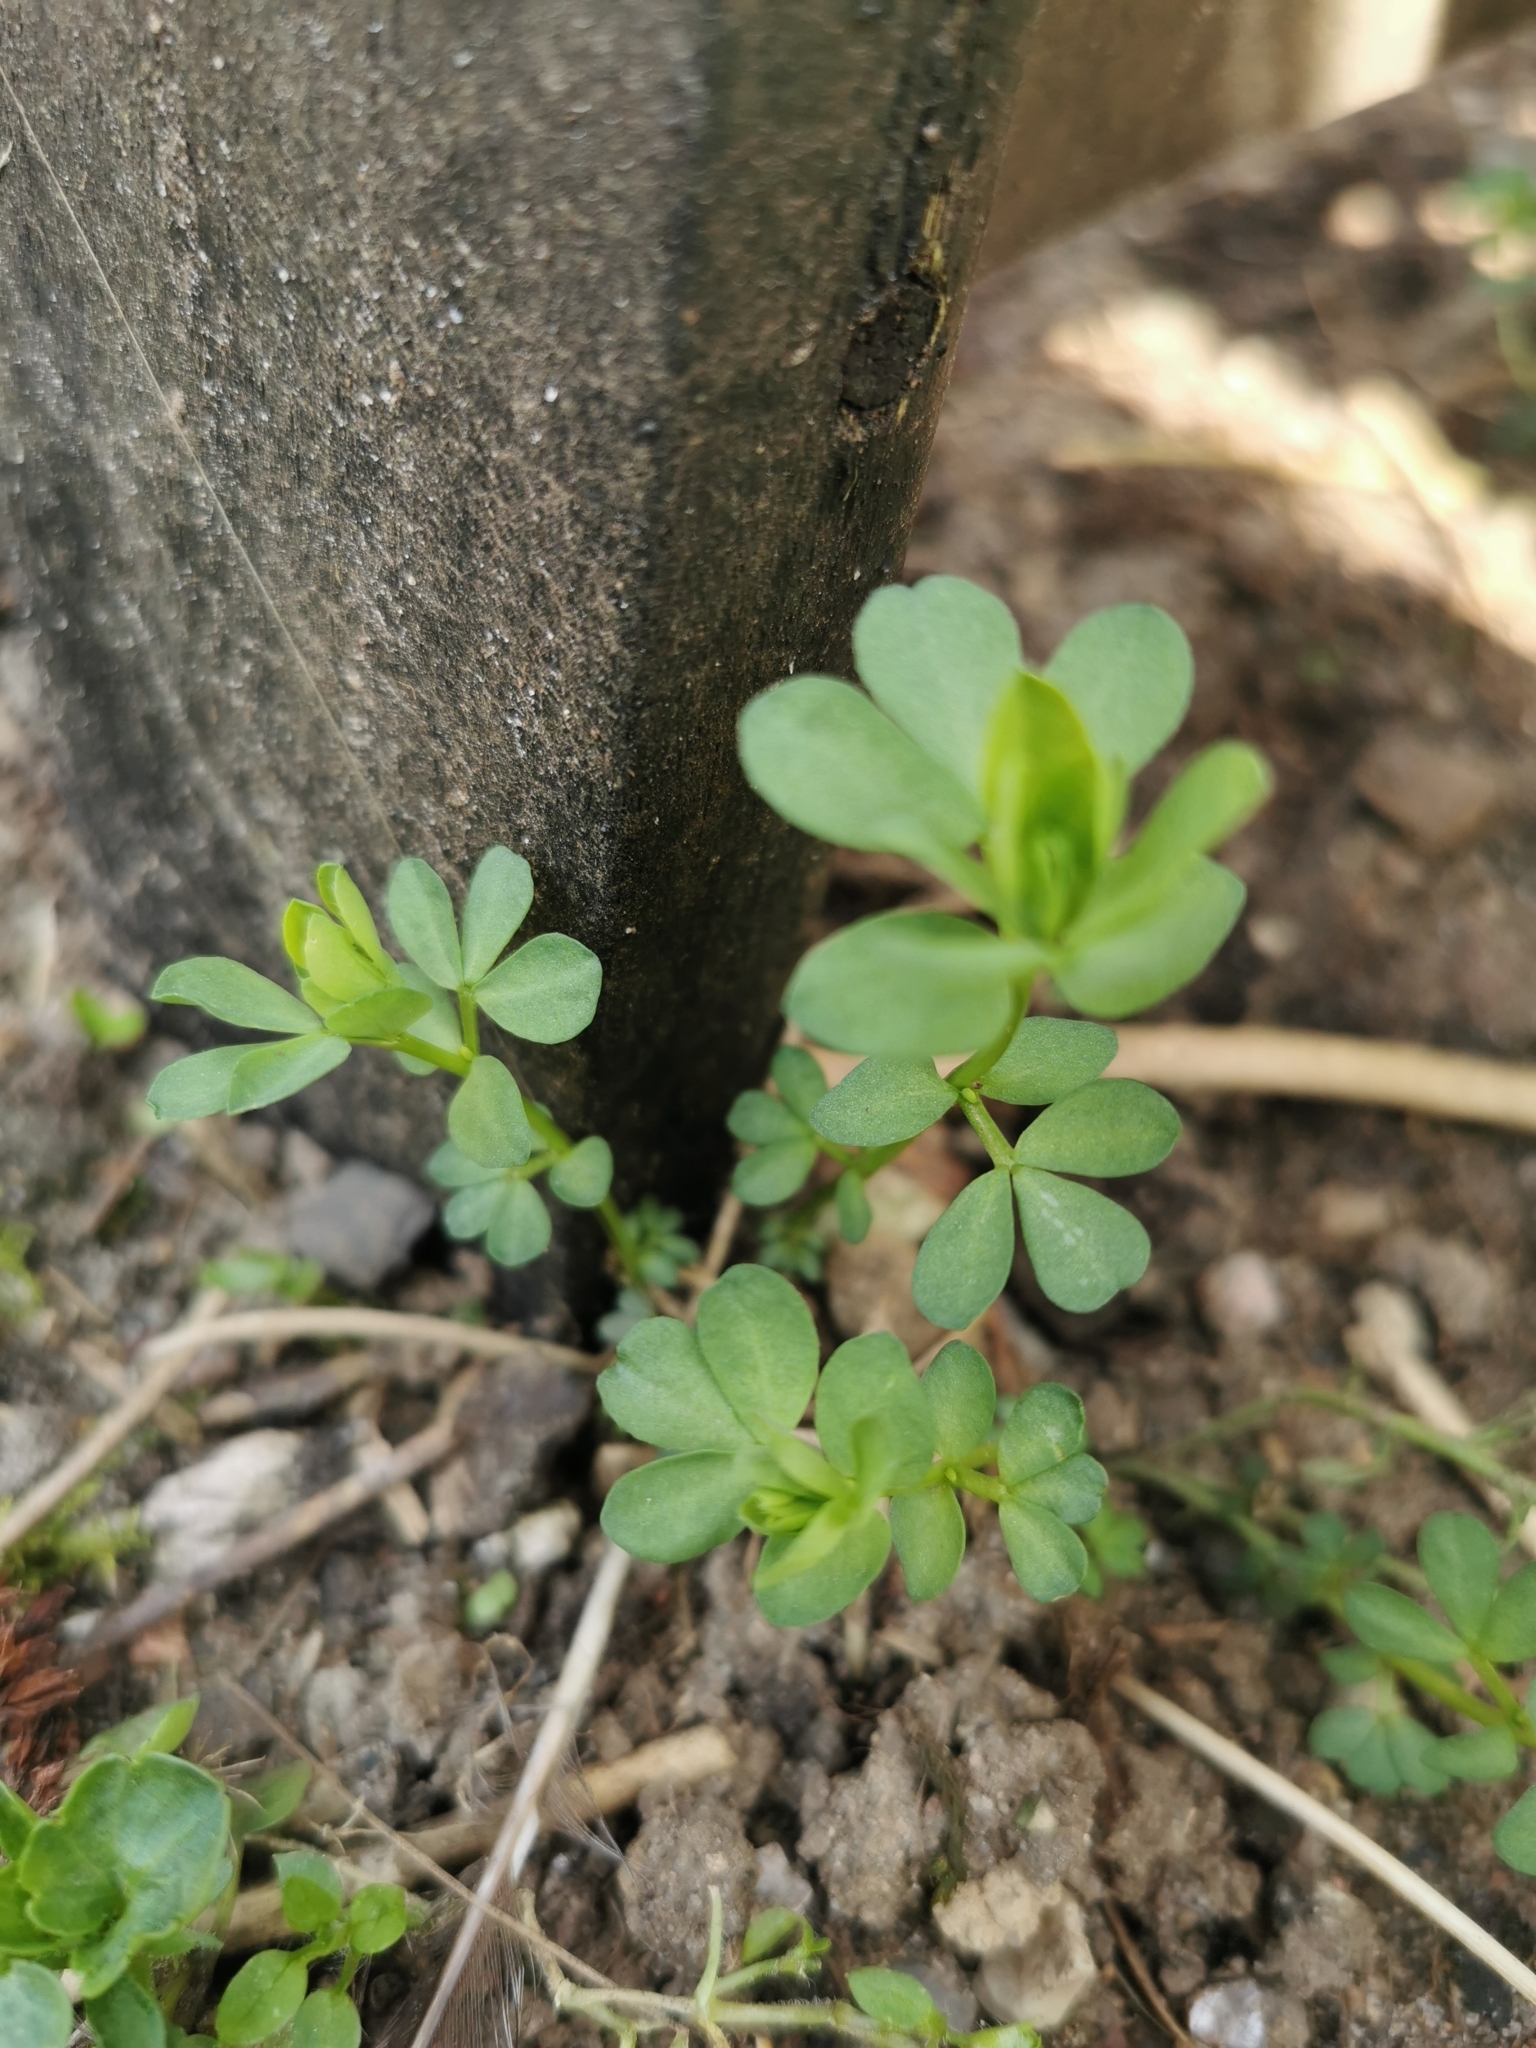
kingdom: Plantae
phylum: Tracheophyta
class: Magnoliopsida
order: Fabales
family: Fabaceae
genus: Lotus
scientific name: Lotus corniculatus
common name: Common bird's-foot-trefoil
